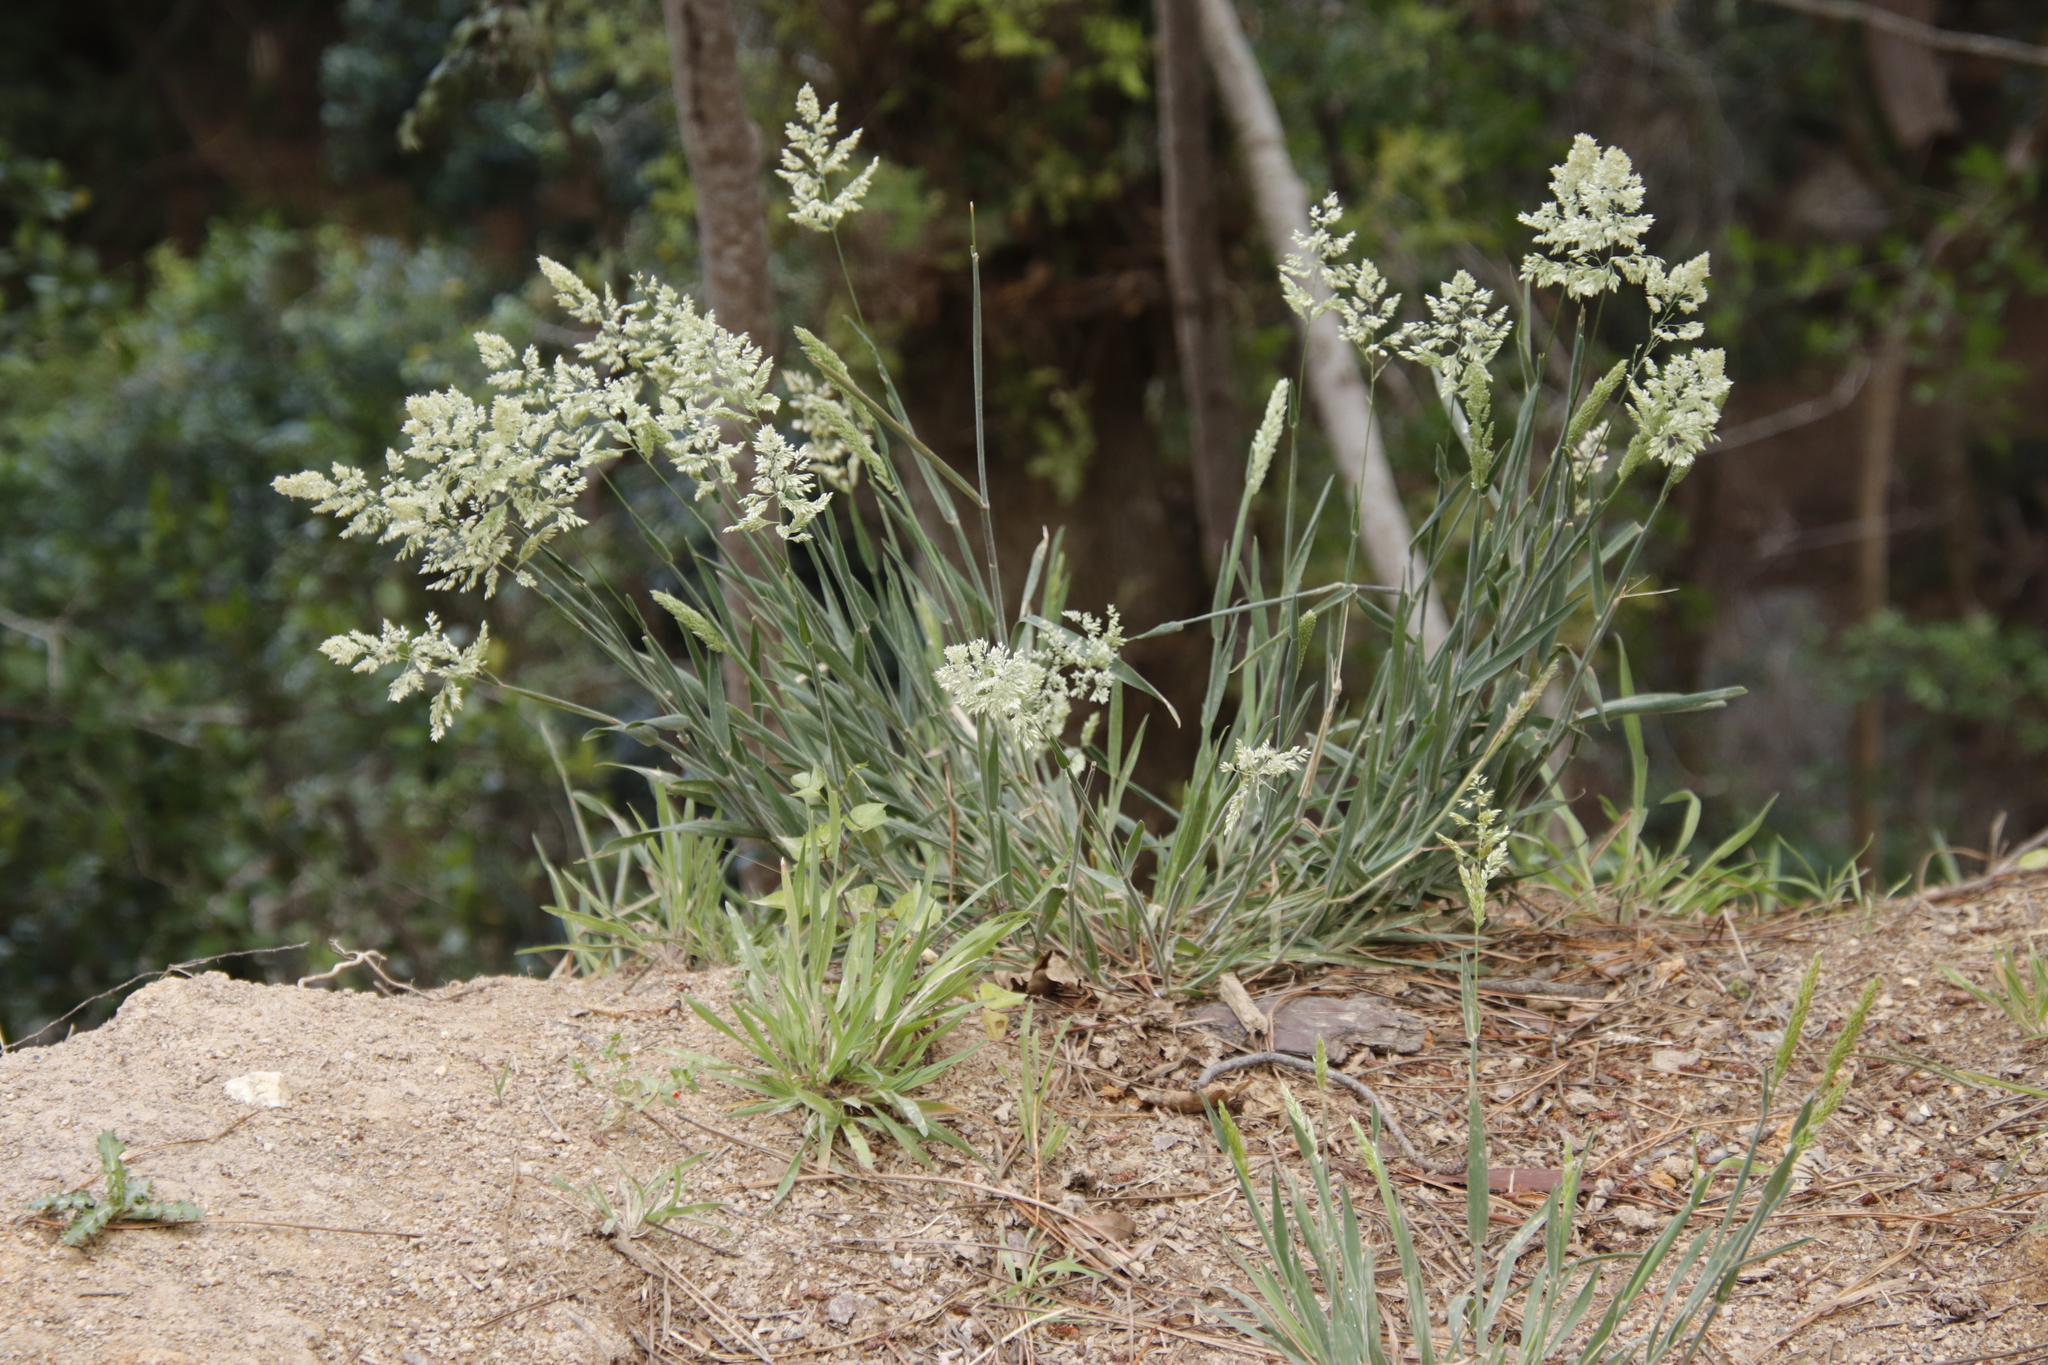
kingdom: Plantae
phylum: Tracheophyta
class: Liliopsida
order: Poales
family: Poaceae
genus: Holcus
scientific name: Holcus lanatus
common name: Yorkshire-fog
